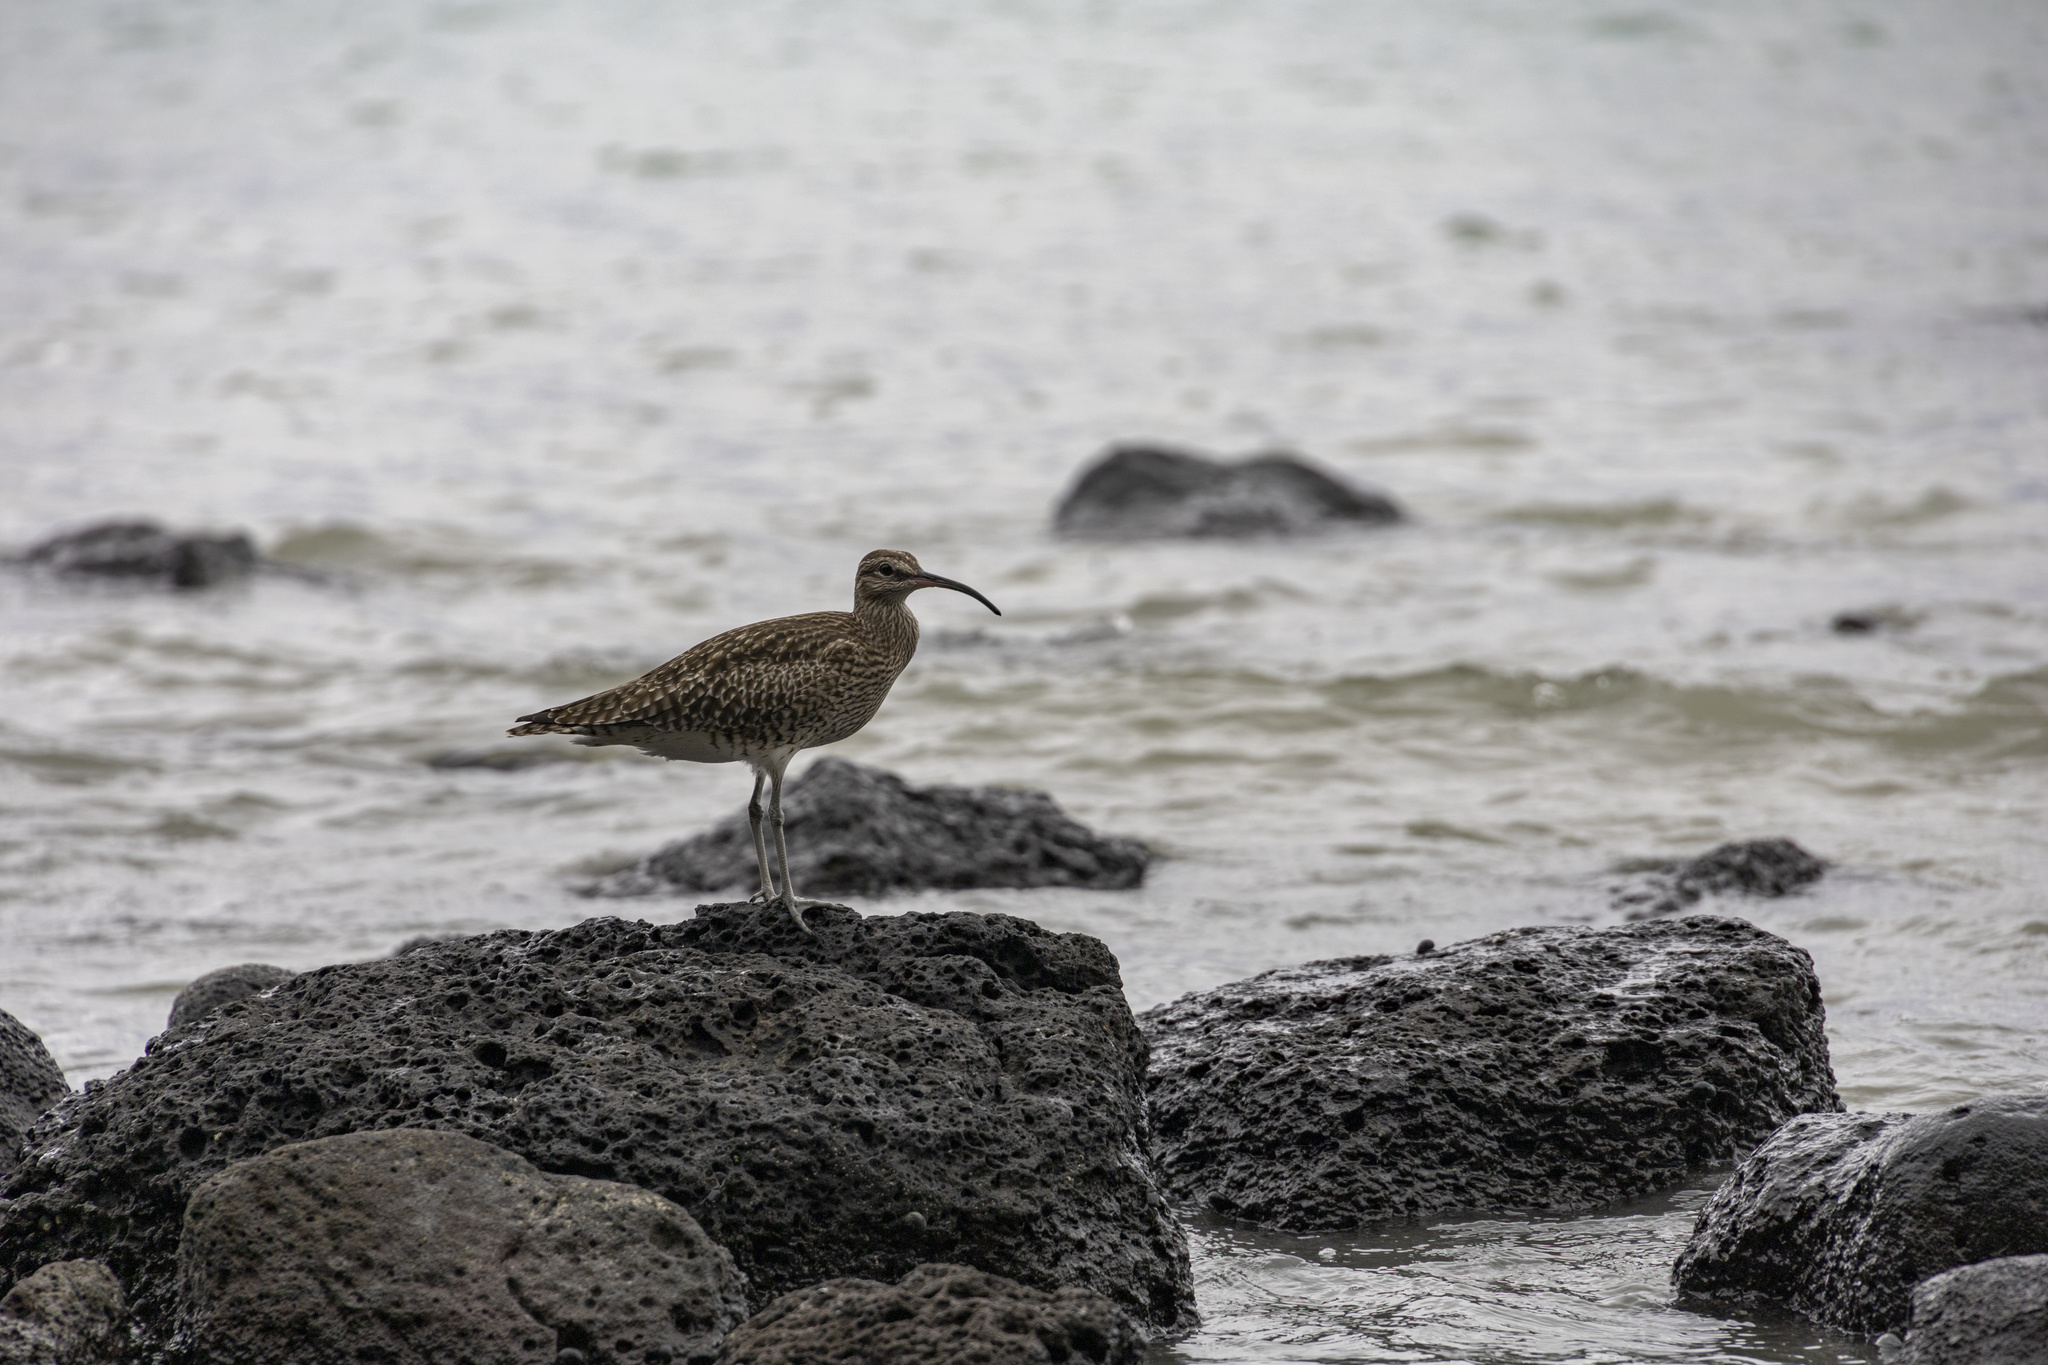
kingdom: Animalia
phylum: Chordata
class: Aves
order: Charadriiformes
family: Scolopacidae
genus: Numenius
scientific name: Numenius phaeopus
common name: Whimbrel
